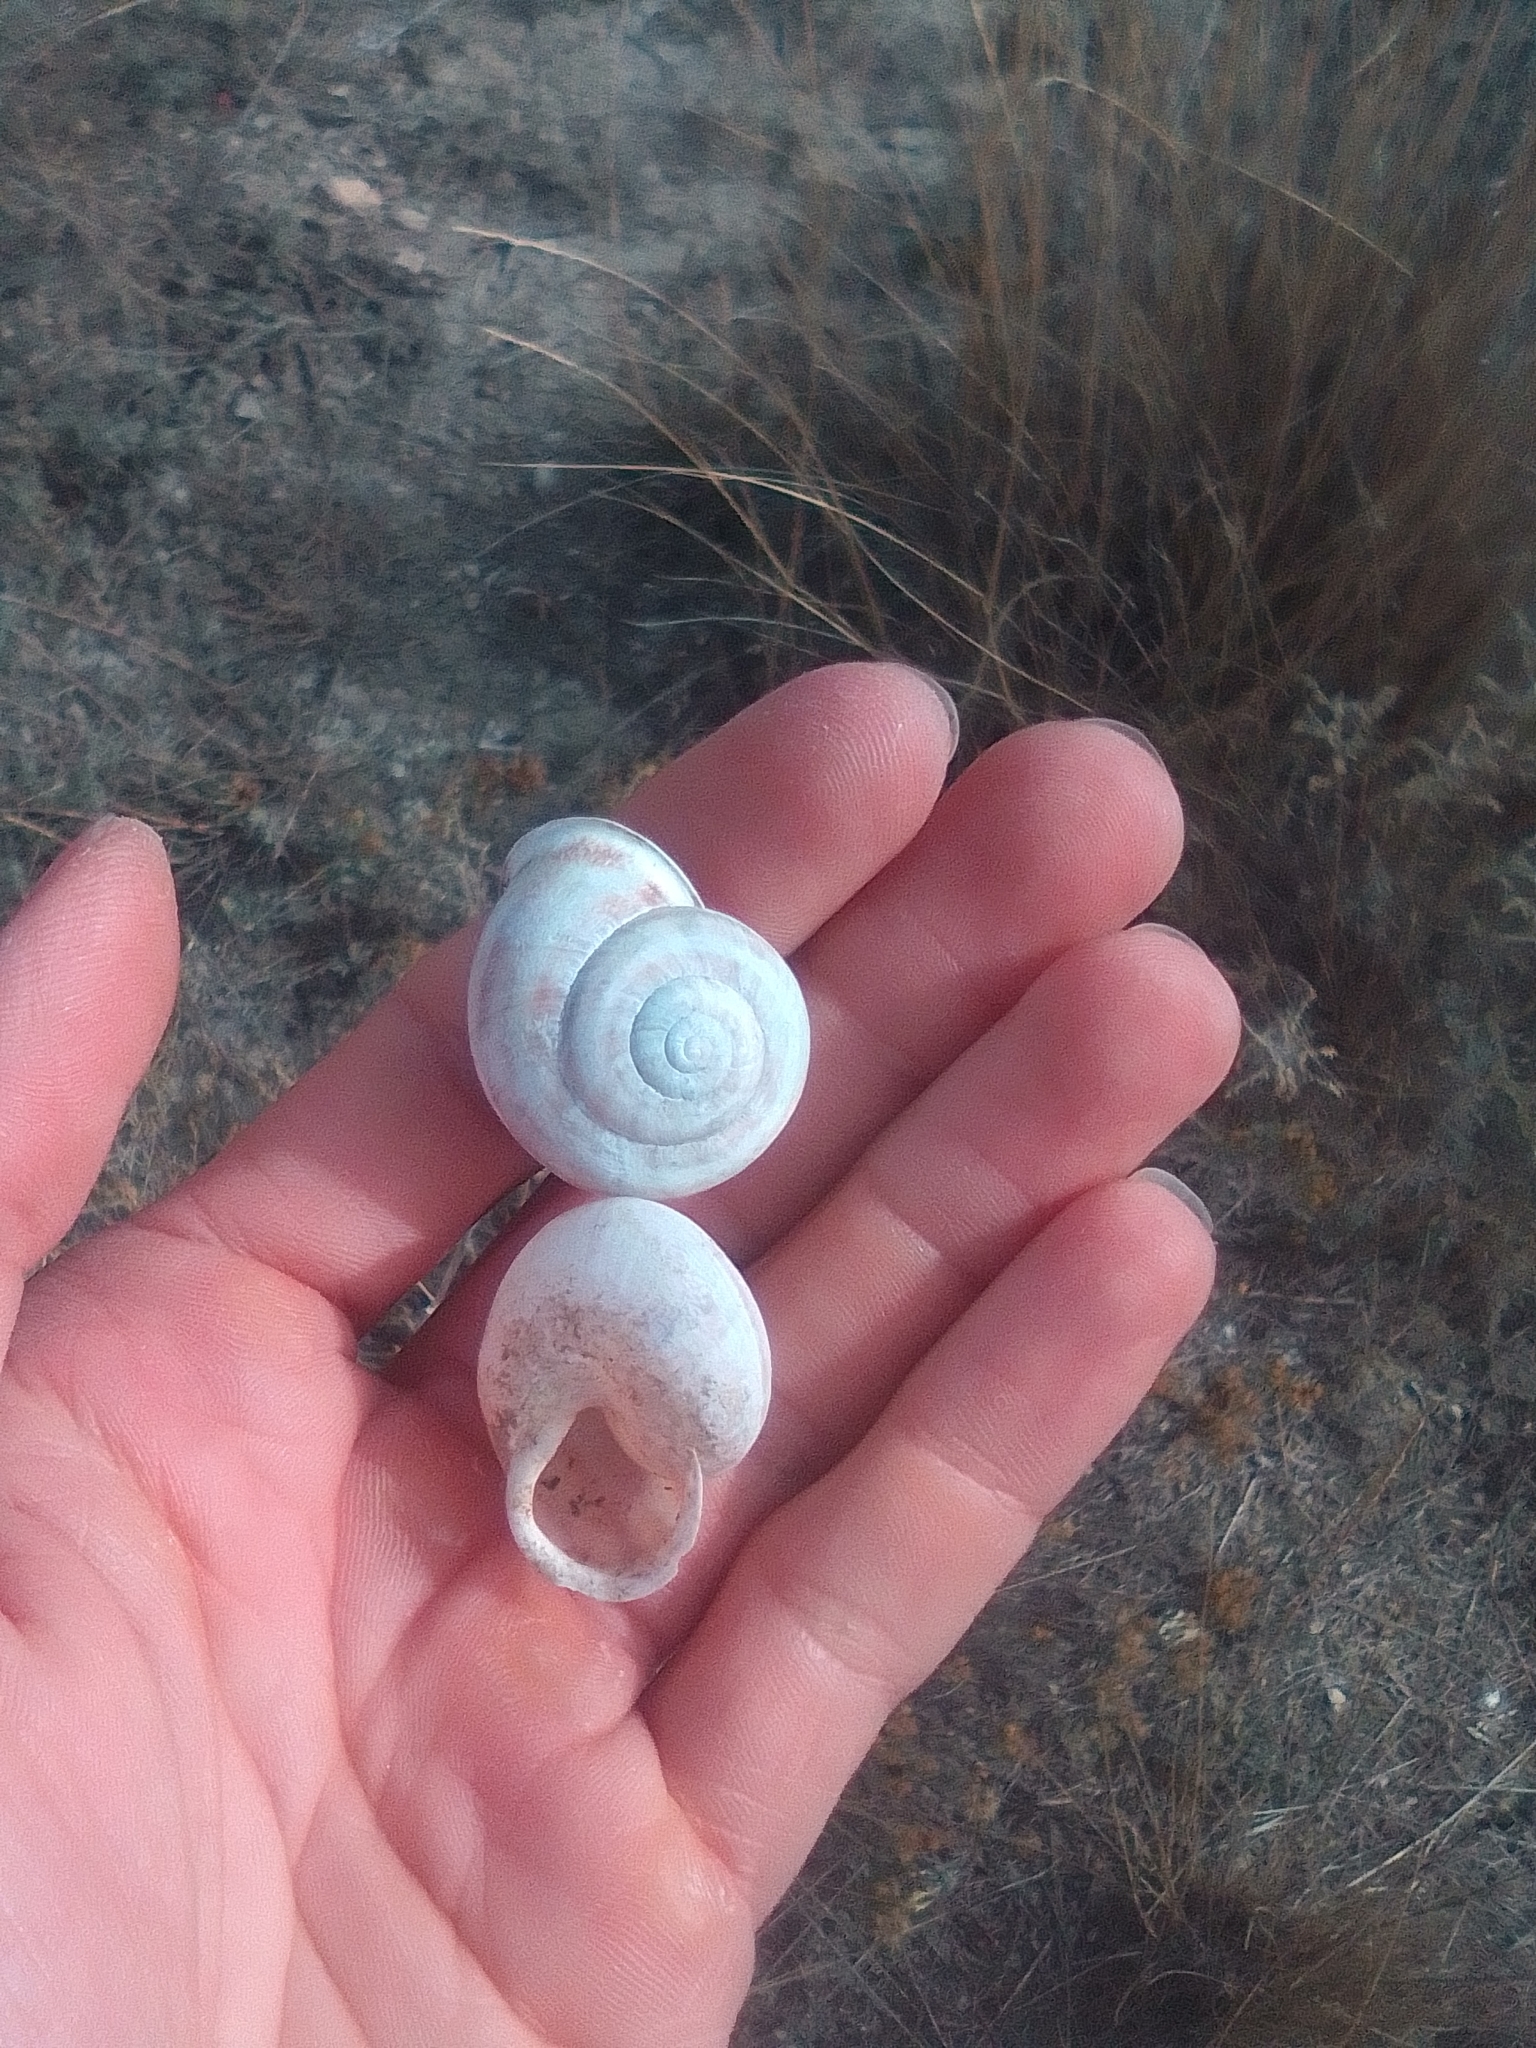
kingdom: Animalia
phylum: Mollusca
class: Gastropoda
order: Stylommatophora
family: Helicidae
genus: Eobania
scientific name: Eobania vermiculata
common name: Chocolateband snail
